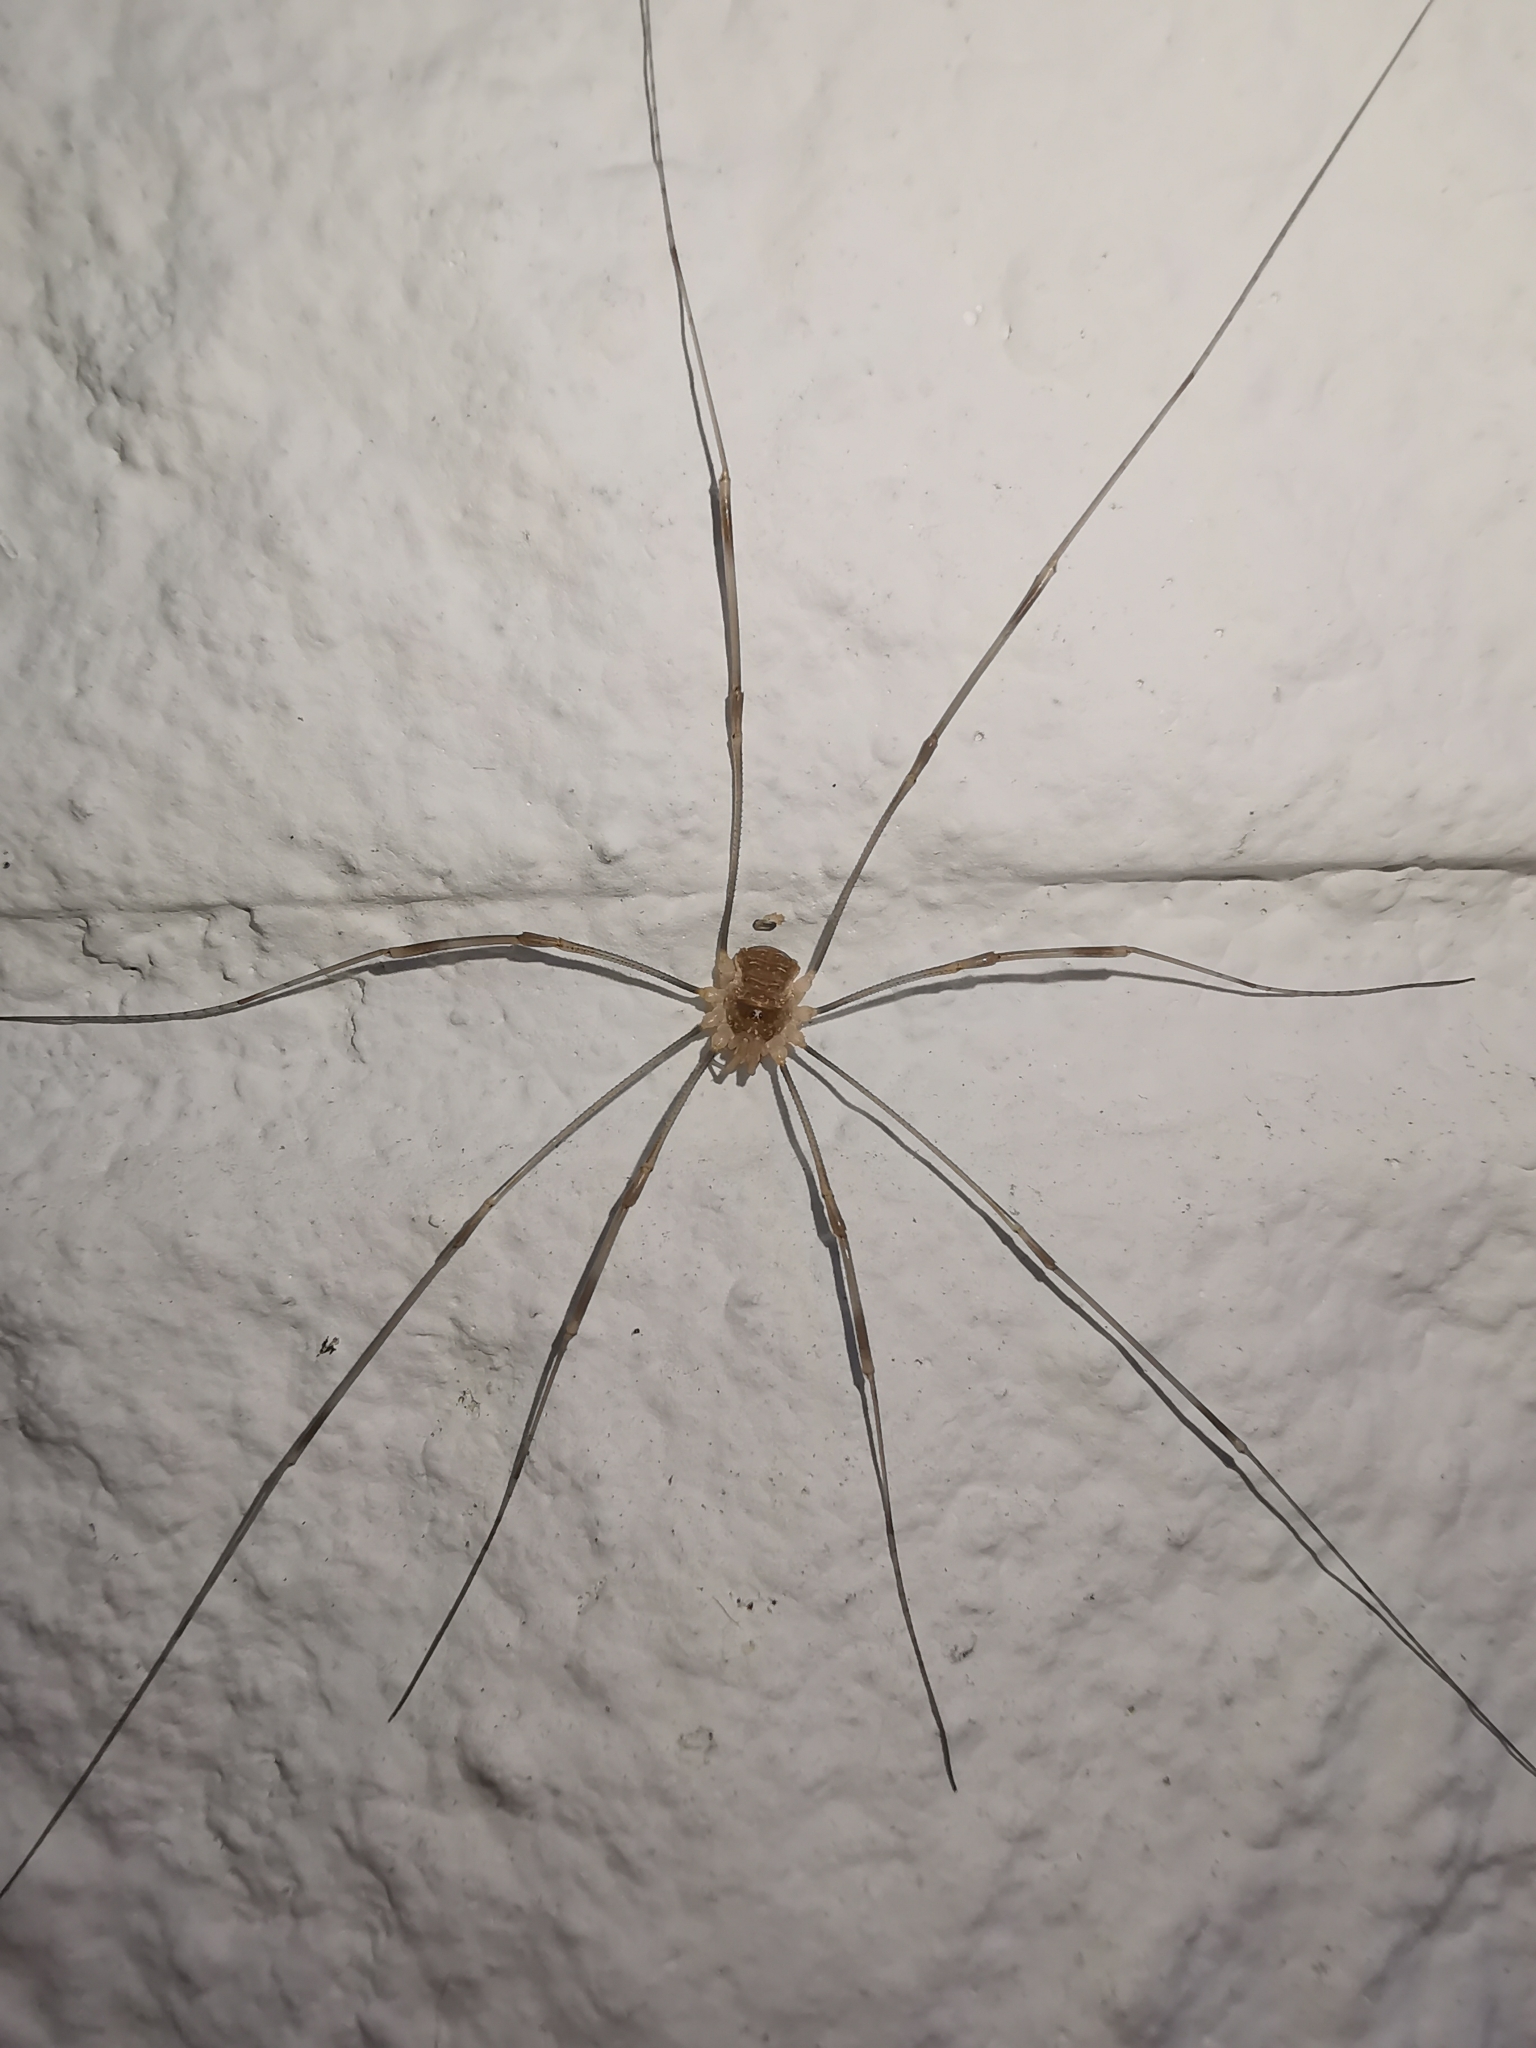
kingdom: Animalia
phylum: Arthropoda
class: Arachnida
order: Opiliones
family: Phalangiidae
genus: Opilio
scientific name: Opilio canestrinii
